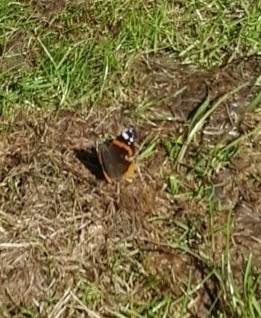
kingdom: Animalia
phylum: Arthropoda
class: Insecta
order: Lepidoptera
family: Nymphalidae
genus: Vanessa
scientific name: Vanessa atalanta
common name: Red admiral
